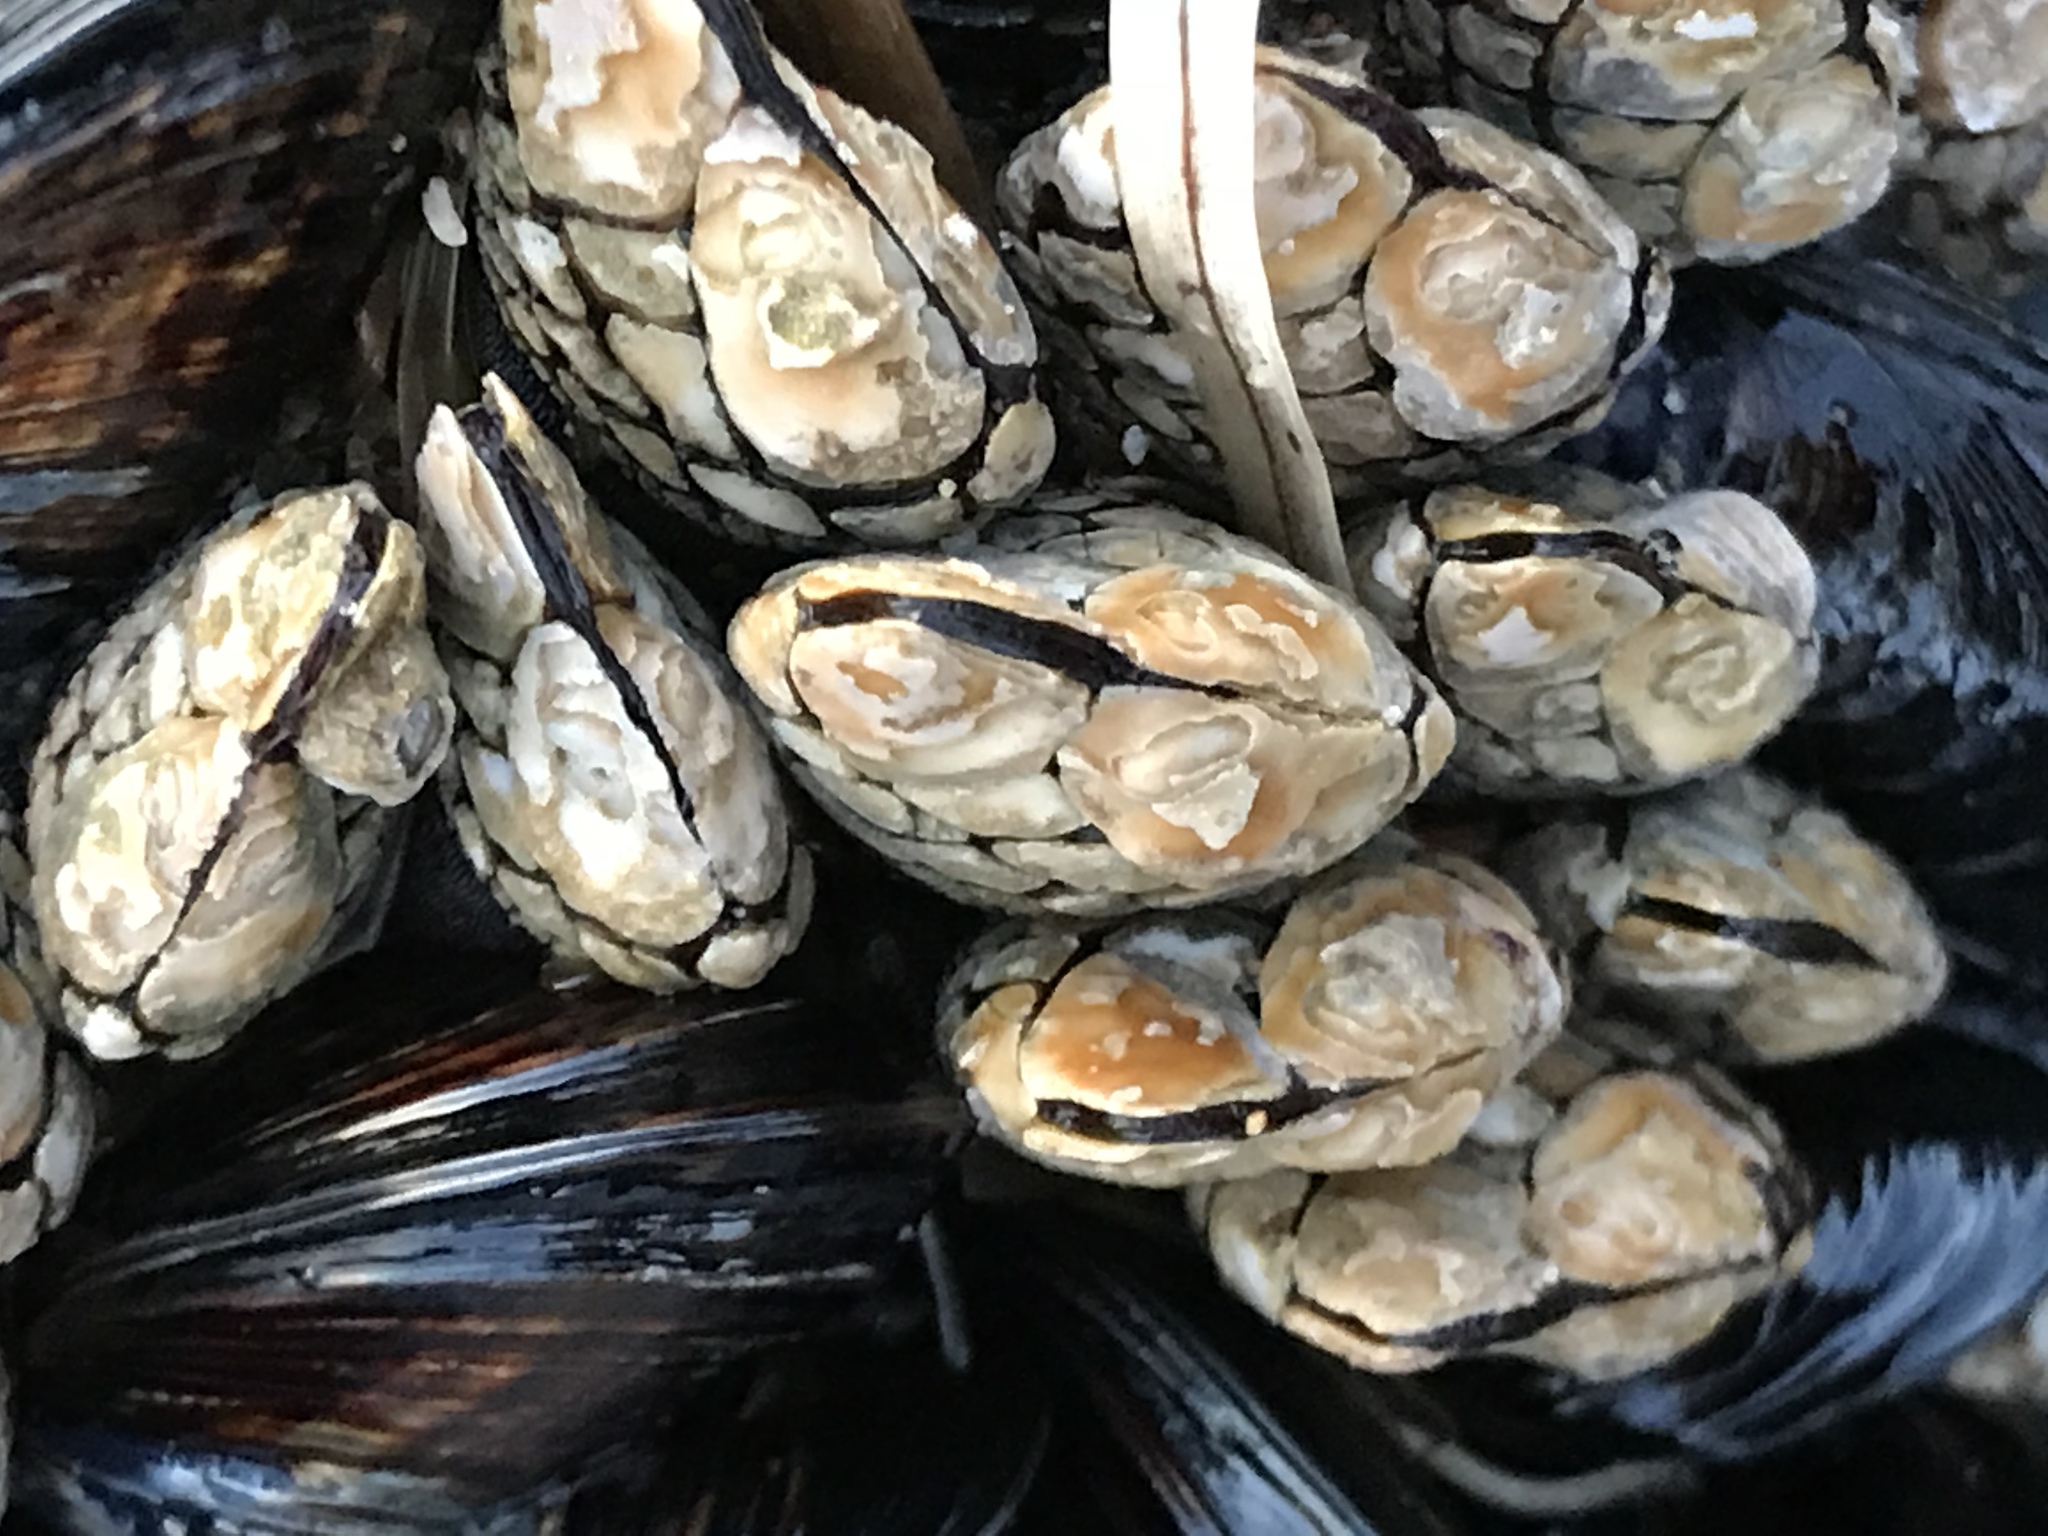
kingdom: Animalia
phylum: Arthropoda
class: Maxillopoda
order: Pedunculata
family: Pollicipedidae
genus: Pollicipes
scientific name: Pollicipes polymerus
